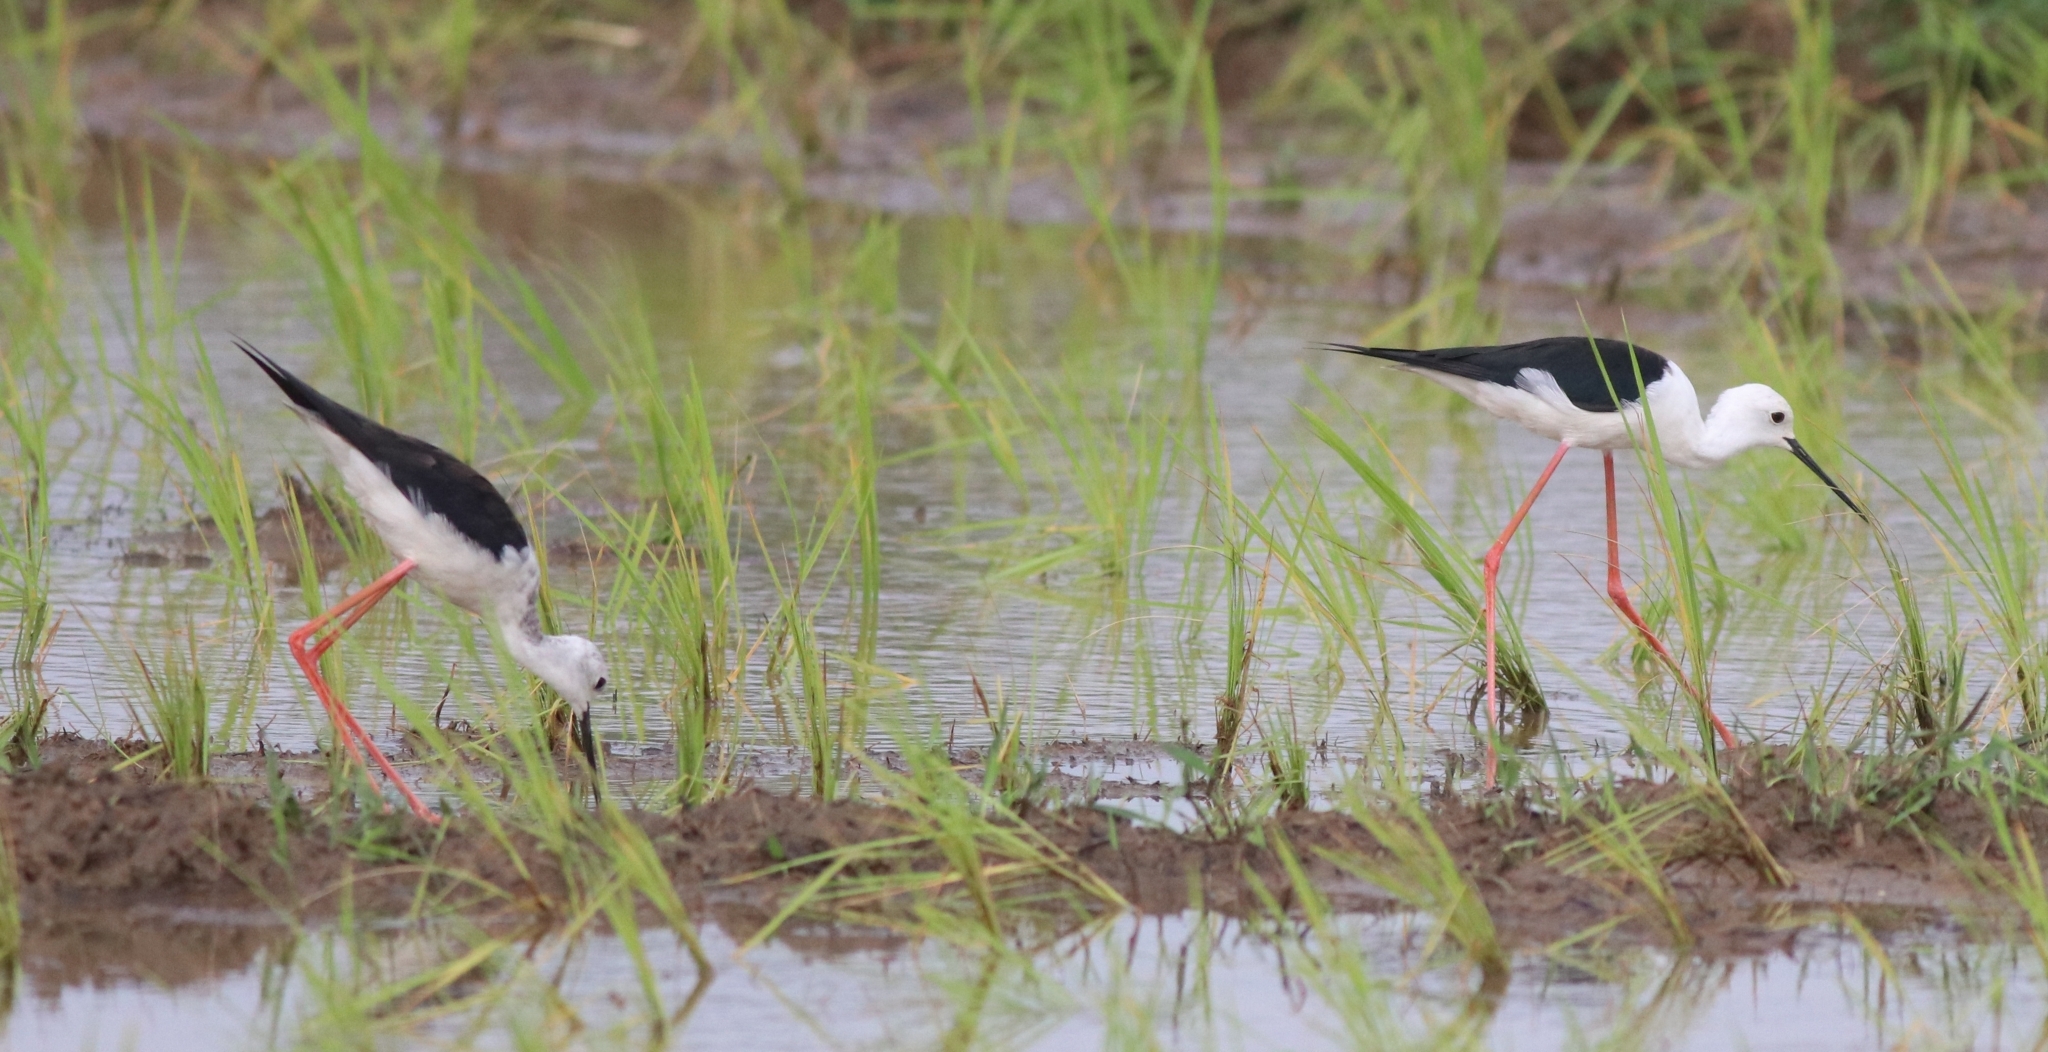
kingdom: Animalia
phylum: Chordata
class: Aves
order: Charadriiformes
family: Recurvirostridae
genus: Himantopus
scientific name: Himantopus himantopus
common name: Black-winged stilt
